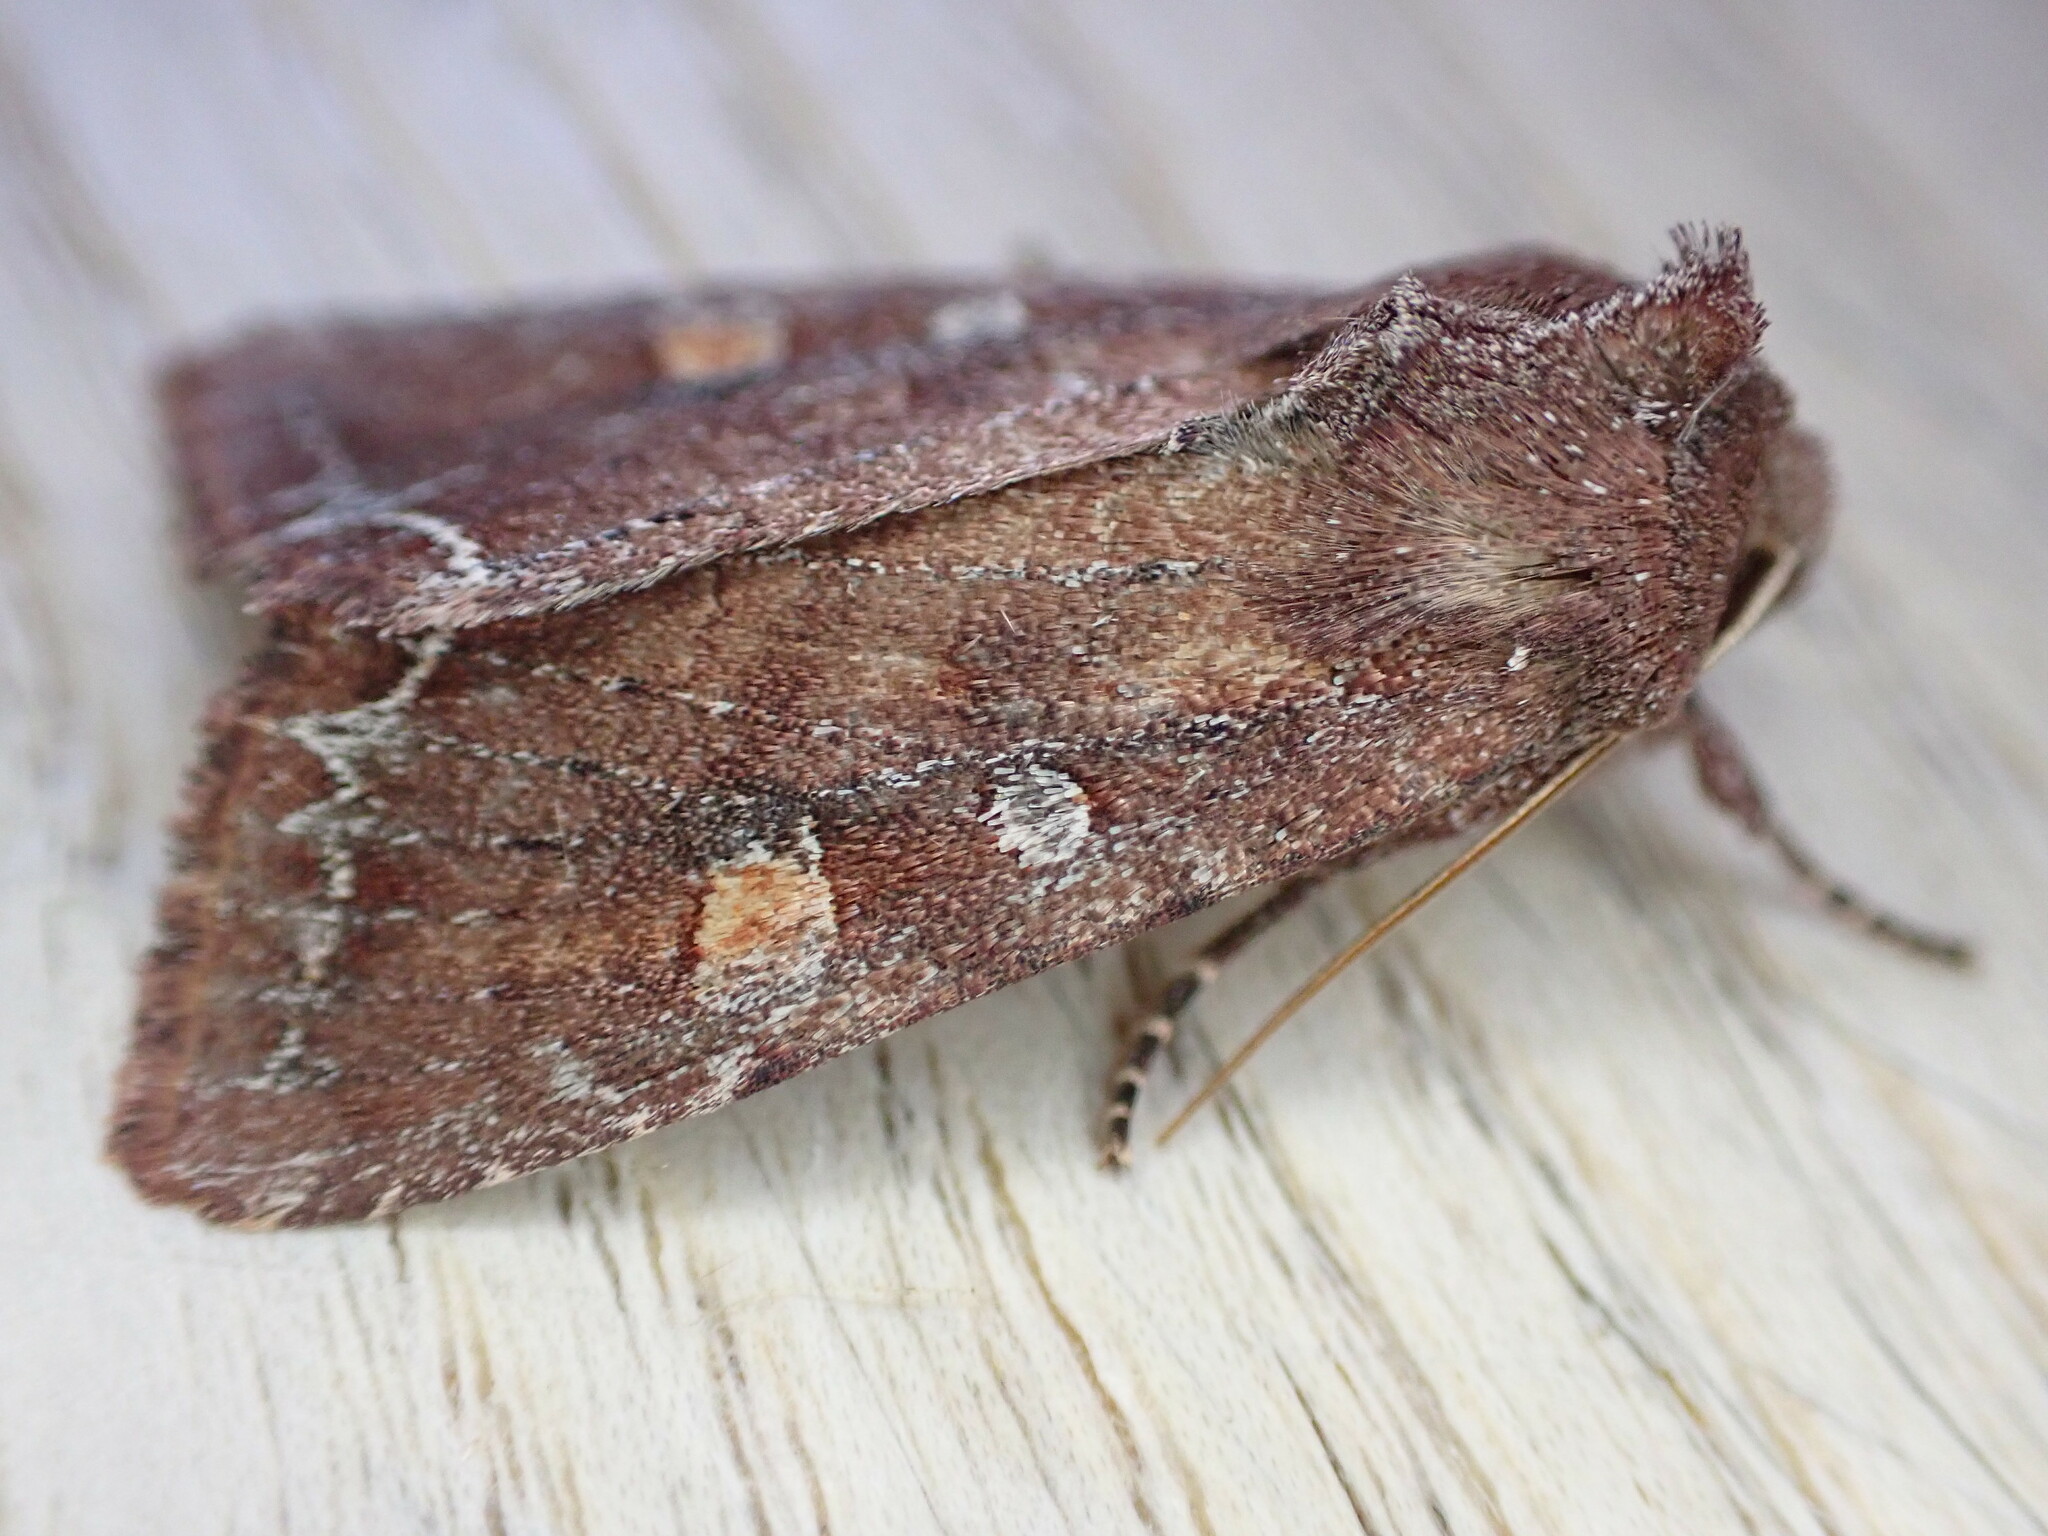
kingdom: Animalia
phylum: Arthropoda
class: Insecta
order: Lepidoptera
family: Noctuidae
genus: Lacanobia
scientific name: Lacanobia oleracea
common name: Bright-line brown-eye
